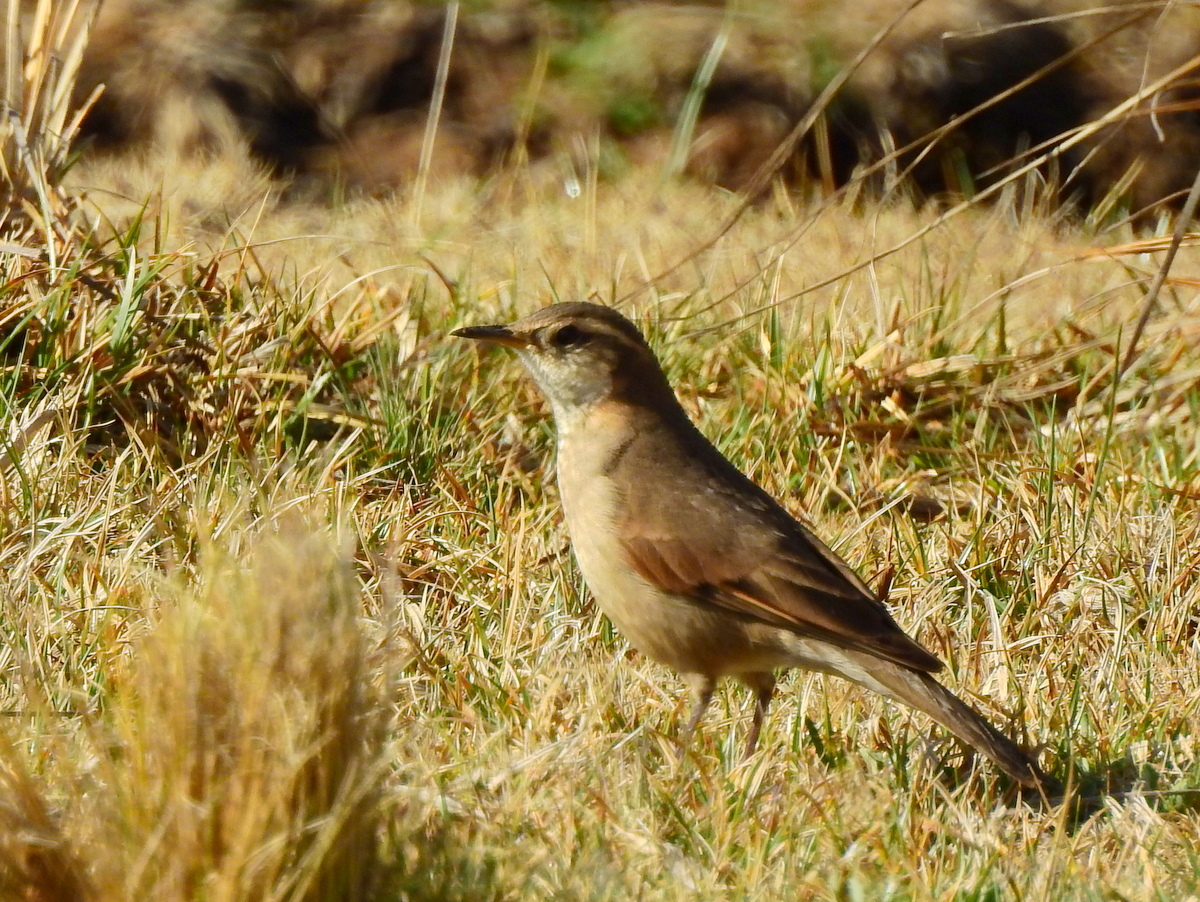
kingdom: Animalia
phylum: Chordata
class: Aves
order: Passeriformes
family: Furnariidae
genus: Cinclodes
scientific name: Cinclodes comechingonus
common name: Cordoba cinclodes
